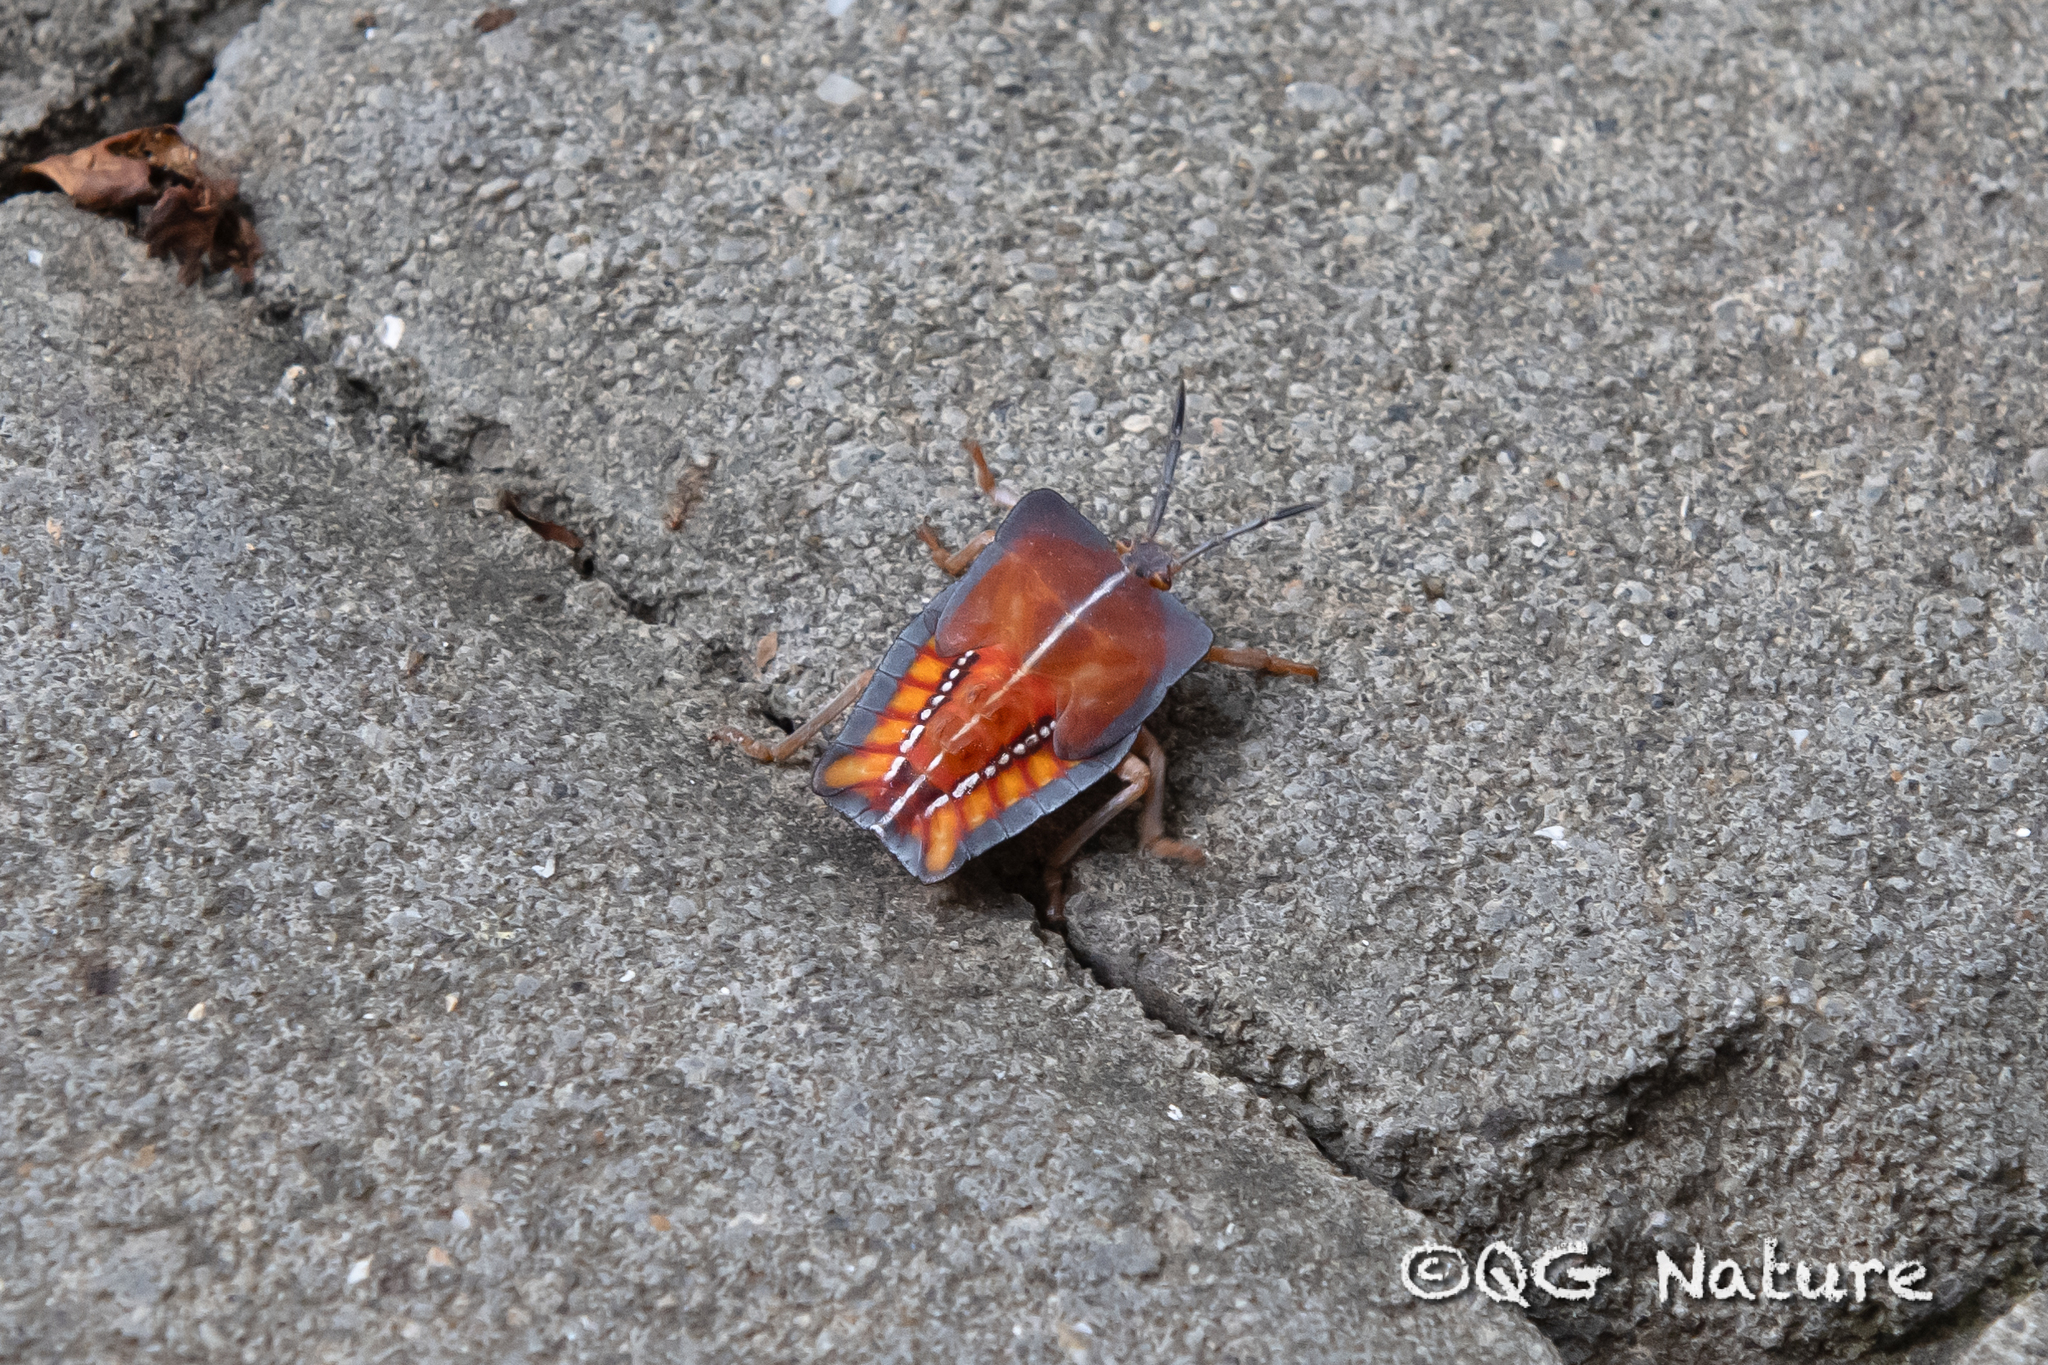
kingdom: Animalia
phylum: Arthropoda
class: Insecta
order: Hemiptera
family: Tessaratomidae
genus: Tessaratoma
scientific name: Tessaratoma papillosa
